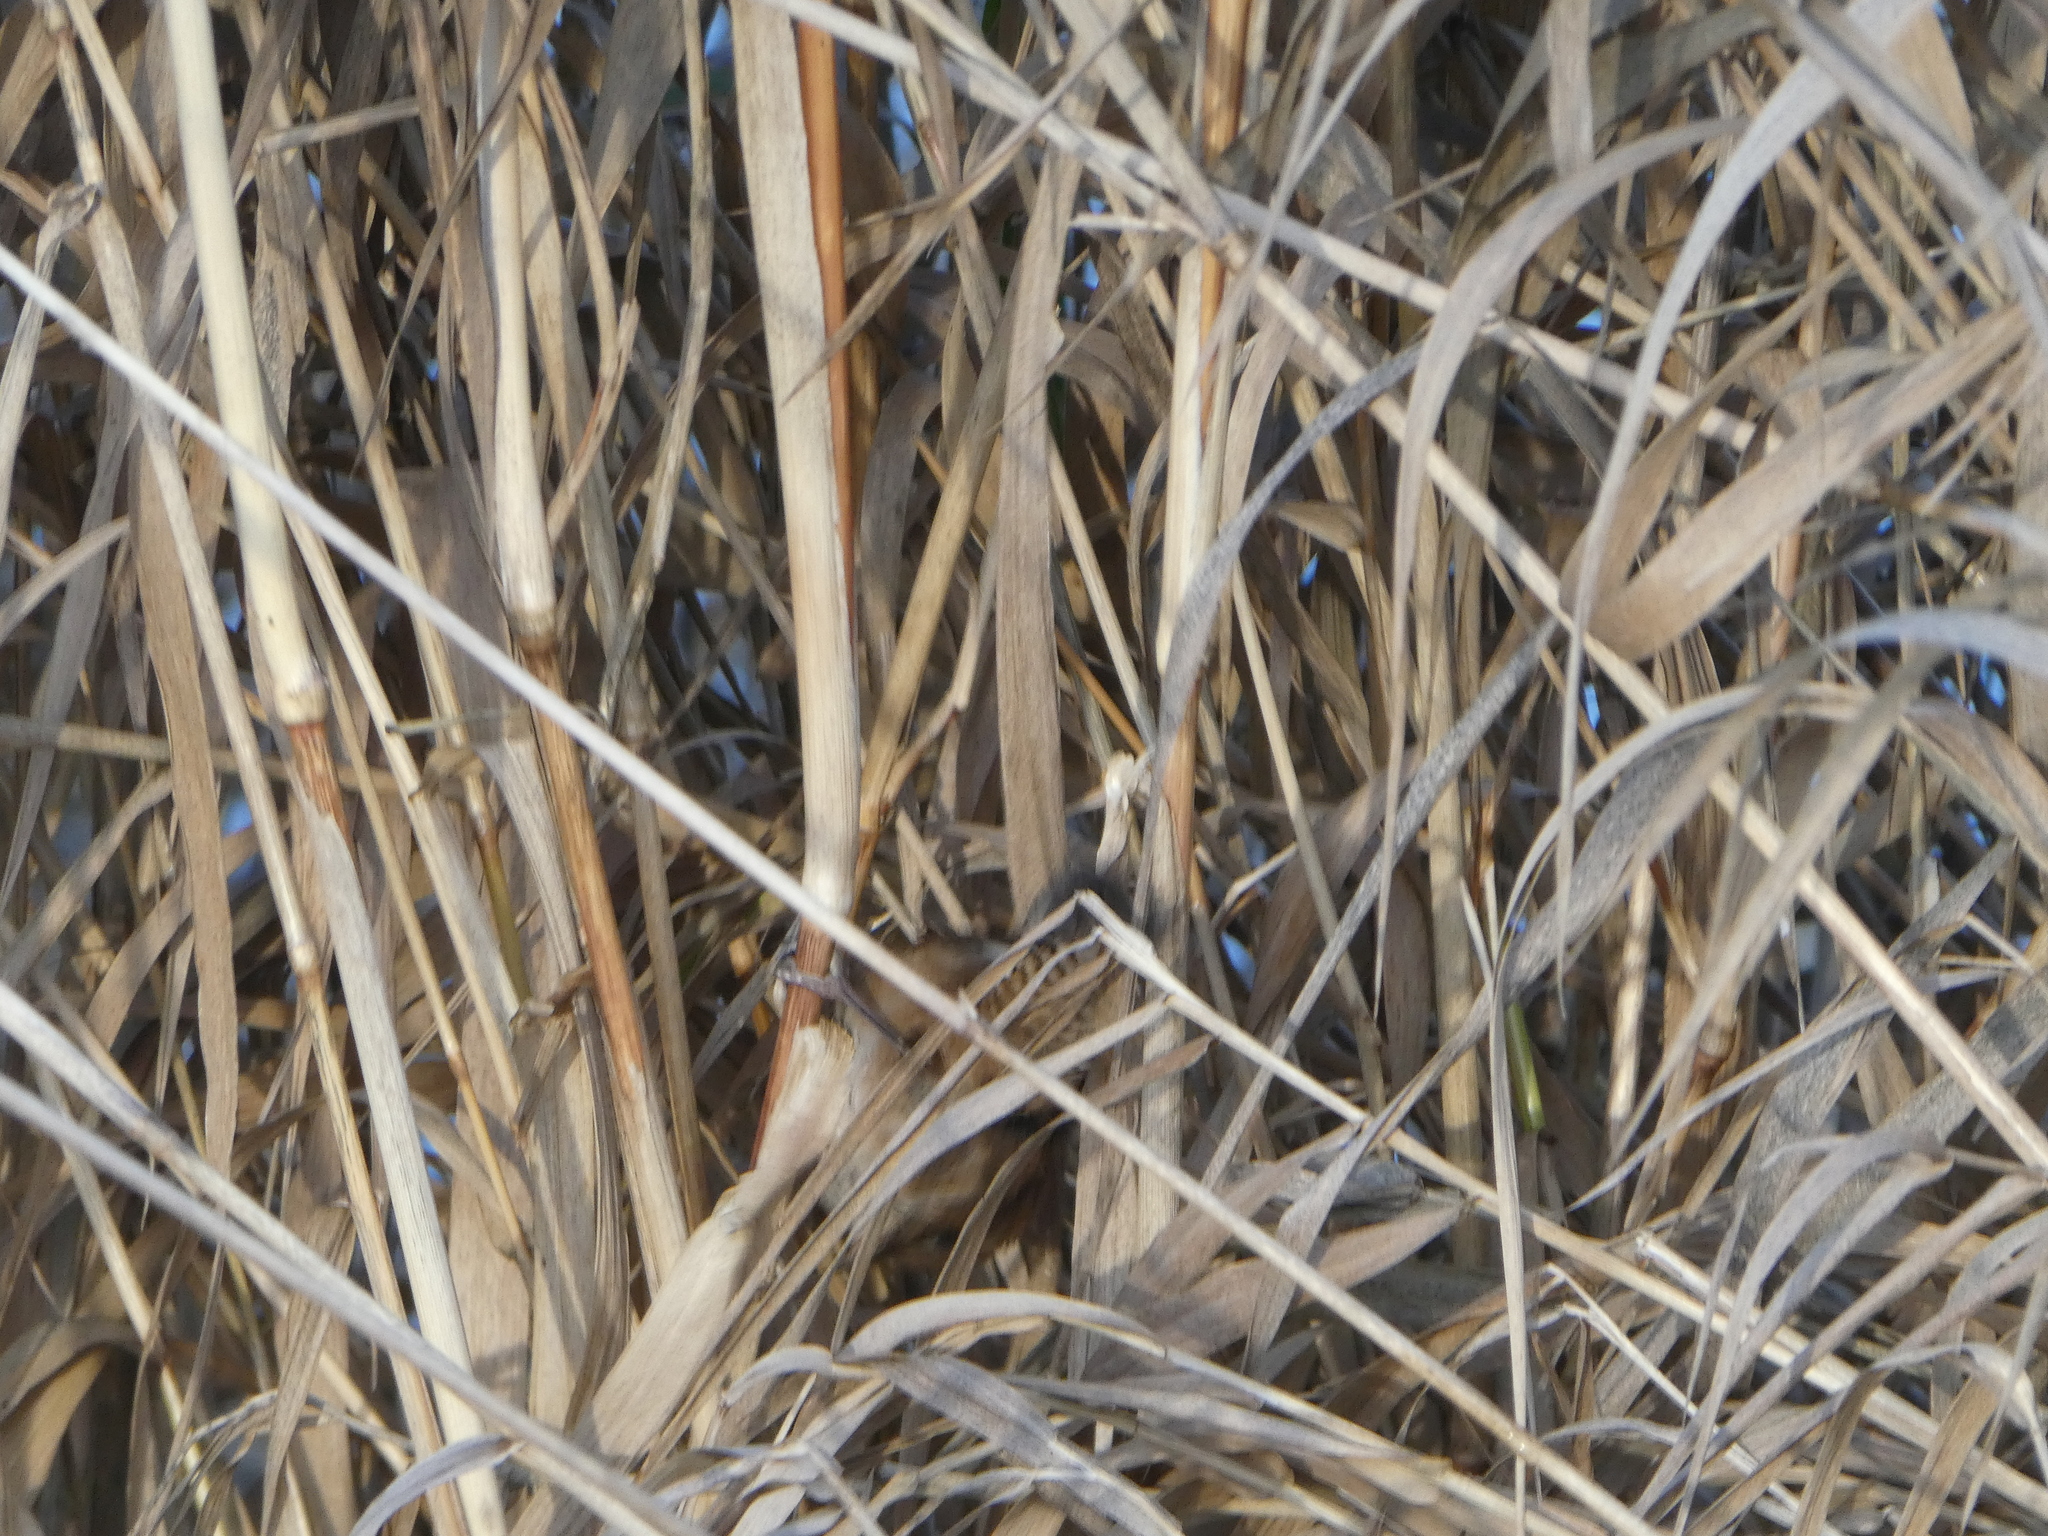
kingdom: Animalia
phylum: Chordata
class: Aves
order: Passeriformes
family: Troglodytidae
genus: Cistothorus
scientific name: Cistothorus palustris
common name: Marsh wren
